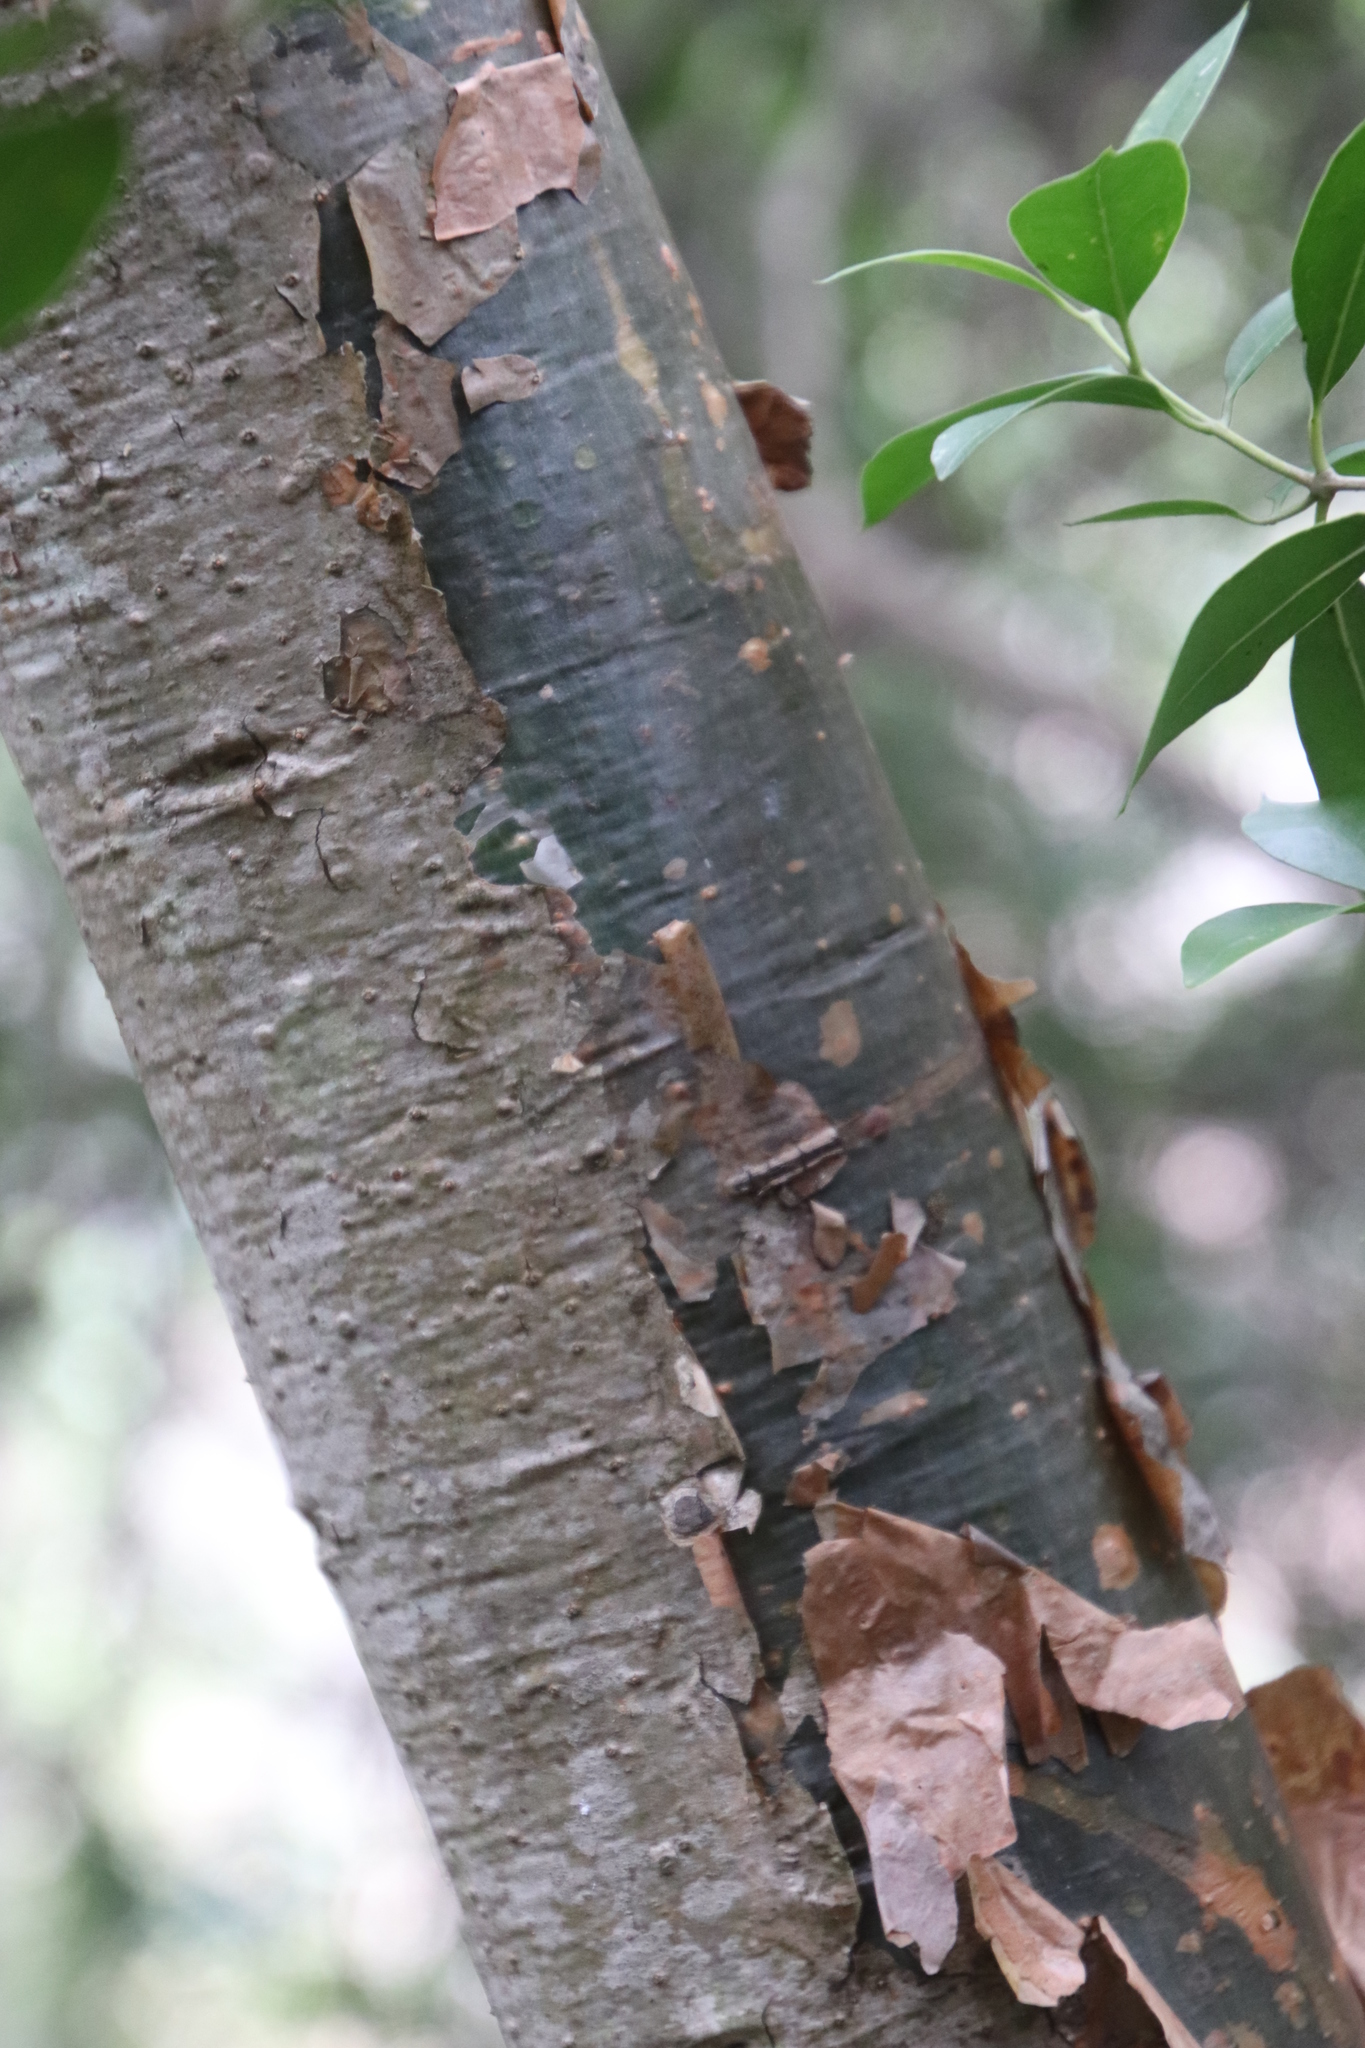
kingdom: Plantae
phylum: Tracheophyta
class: Magnoliopsida
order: Lamiales
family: Oleaceae
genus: Olea
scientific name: Olea europaea
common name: Olive
